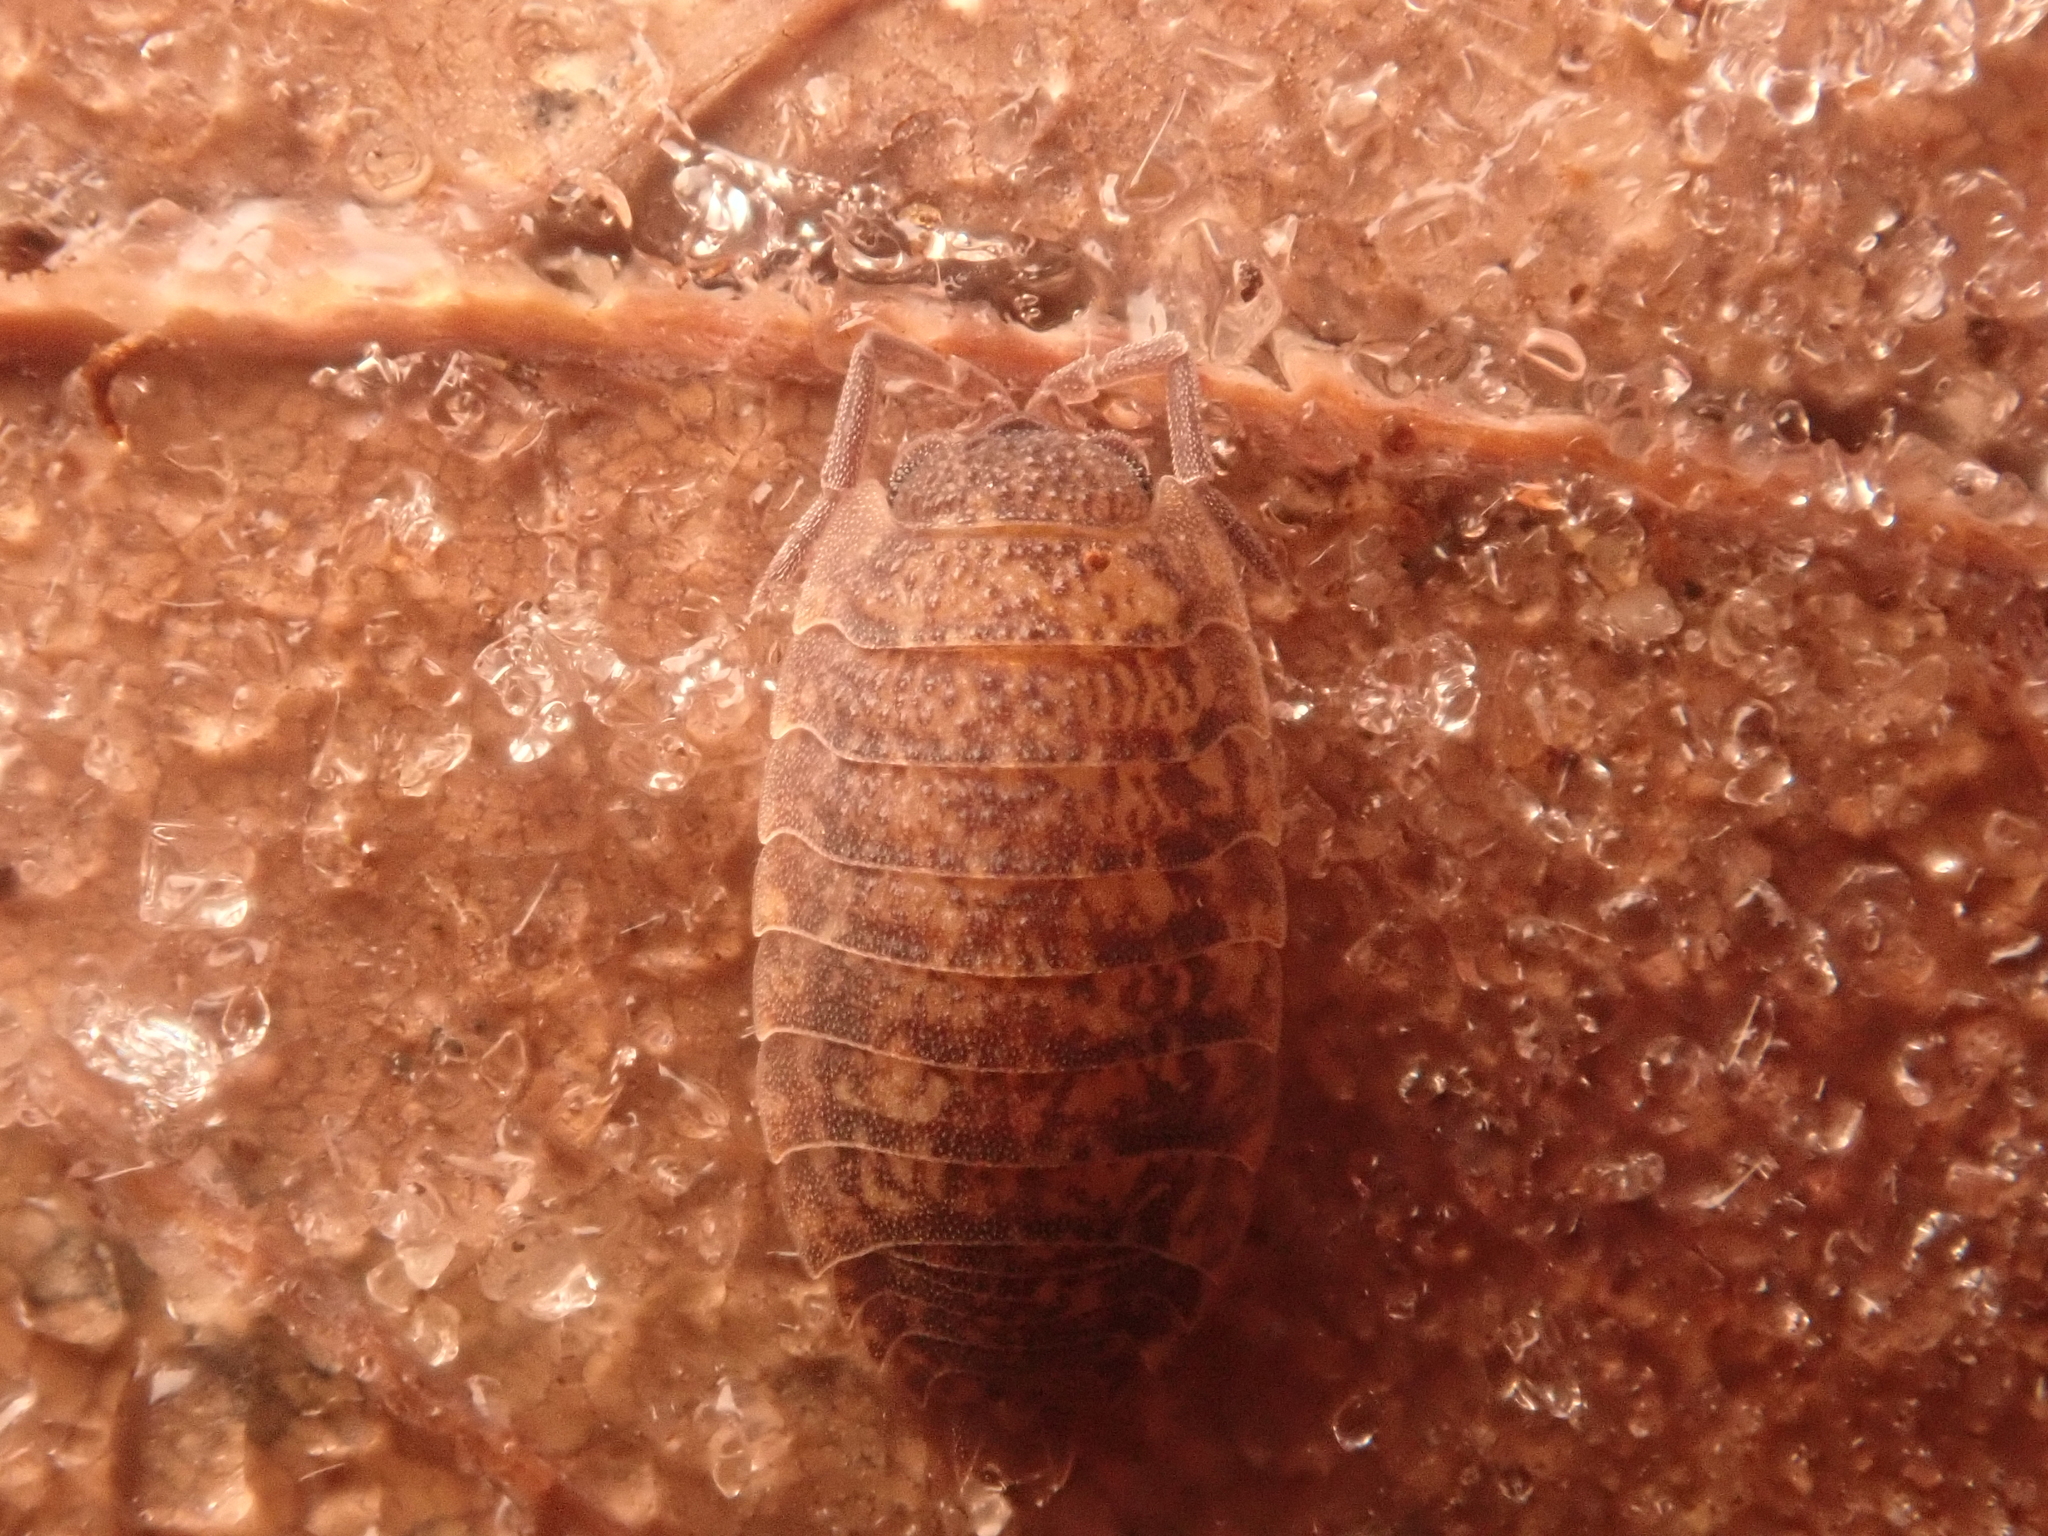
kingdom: Animalia
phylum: Arthropoda
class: Malacostraca
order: Isopoda
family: Porcellionidae
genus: Porcellio
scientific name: Porcellio scaber
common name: Common rough woodlouse
